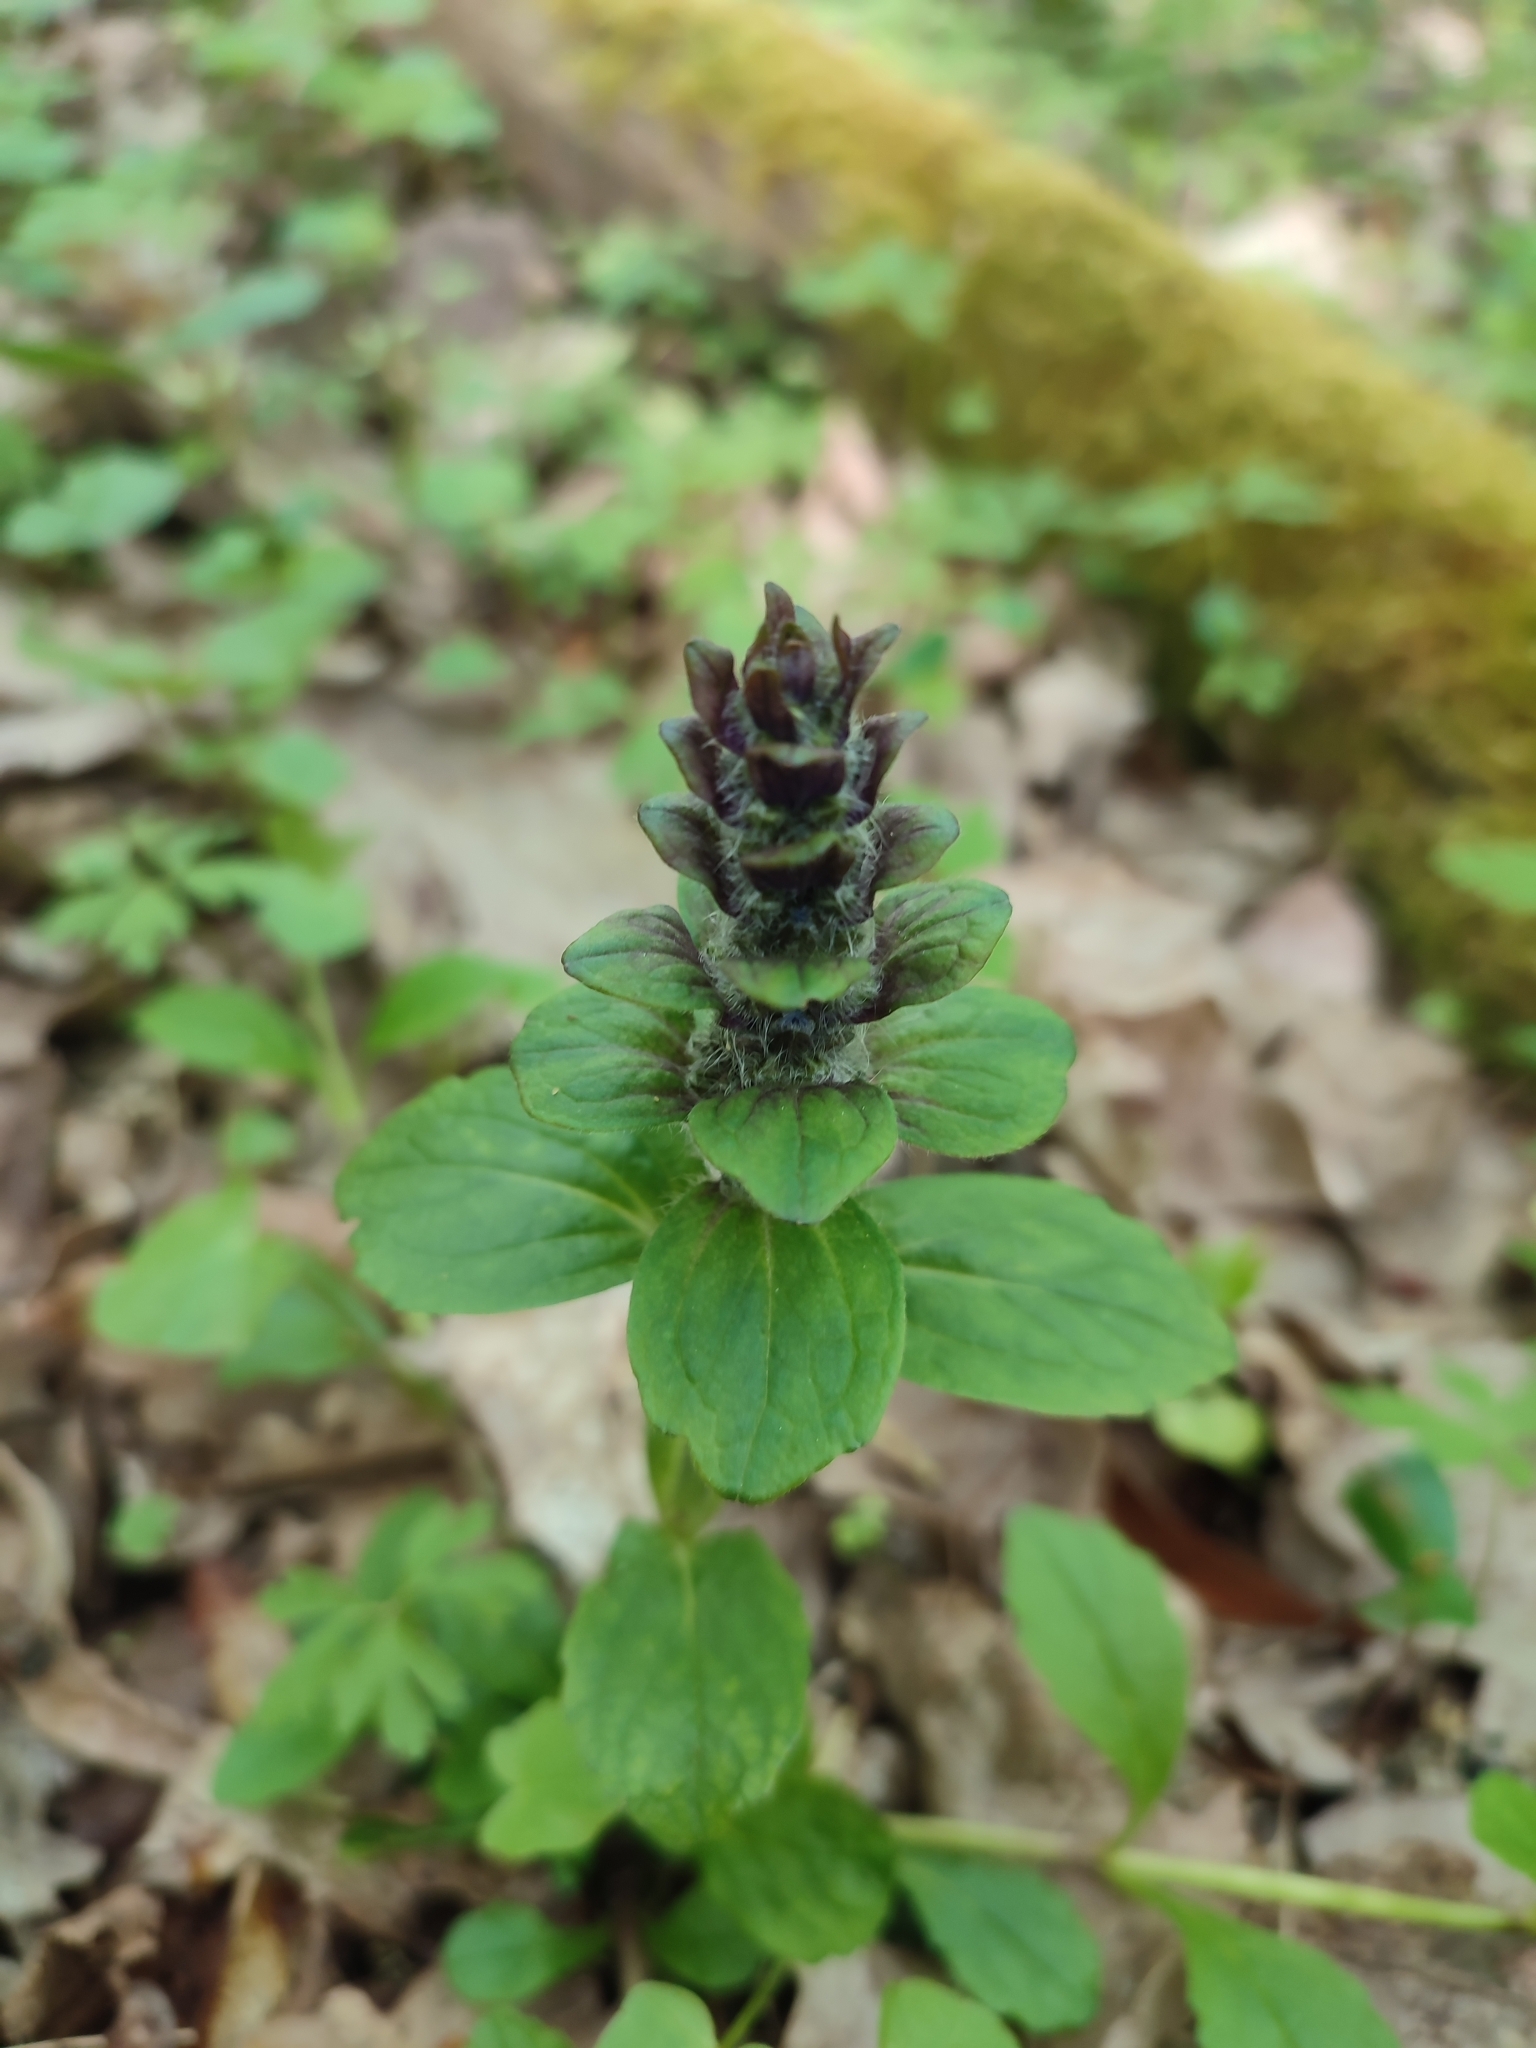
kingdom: Plantae
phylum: Tracheophyta
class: Magnoliopsida
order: Lamiales
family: Lamiaceae
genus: Ajuga
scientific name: Ajuga reptans
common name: Bugle
